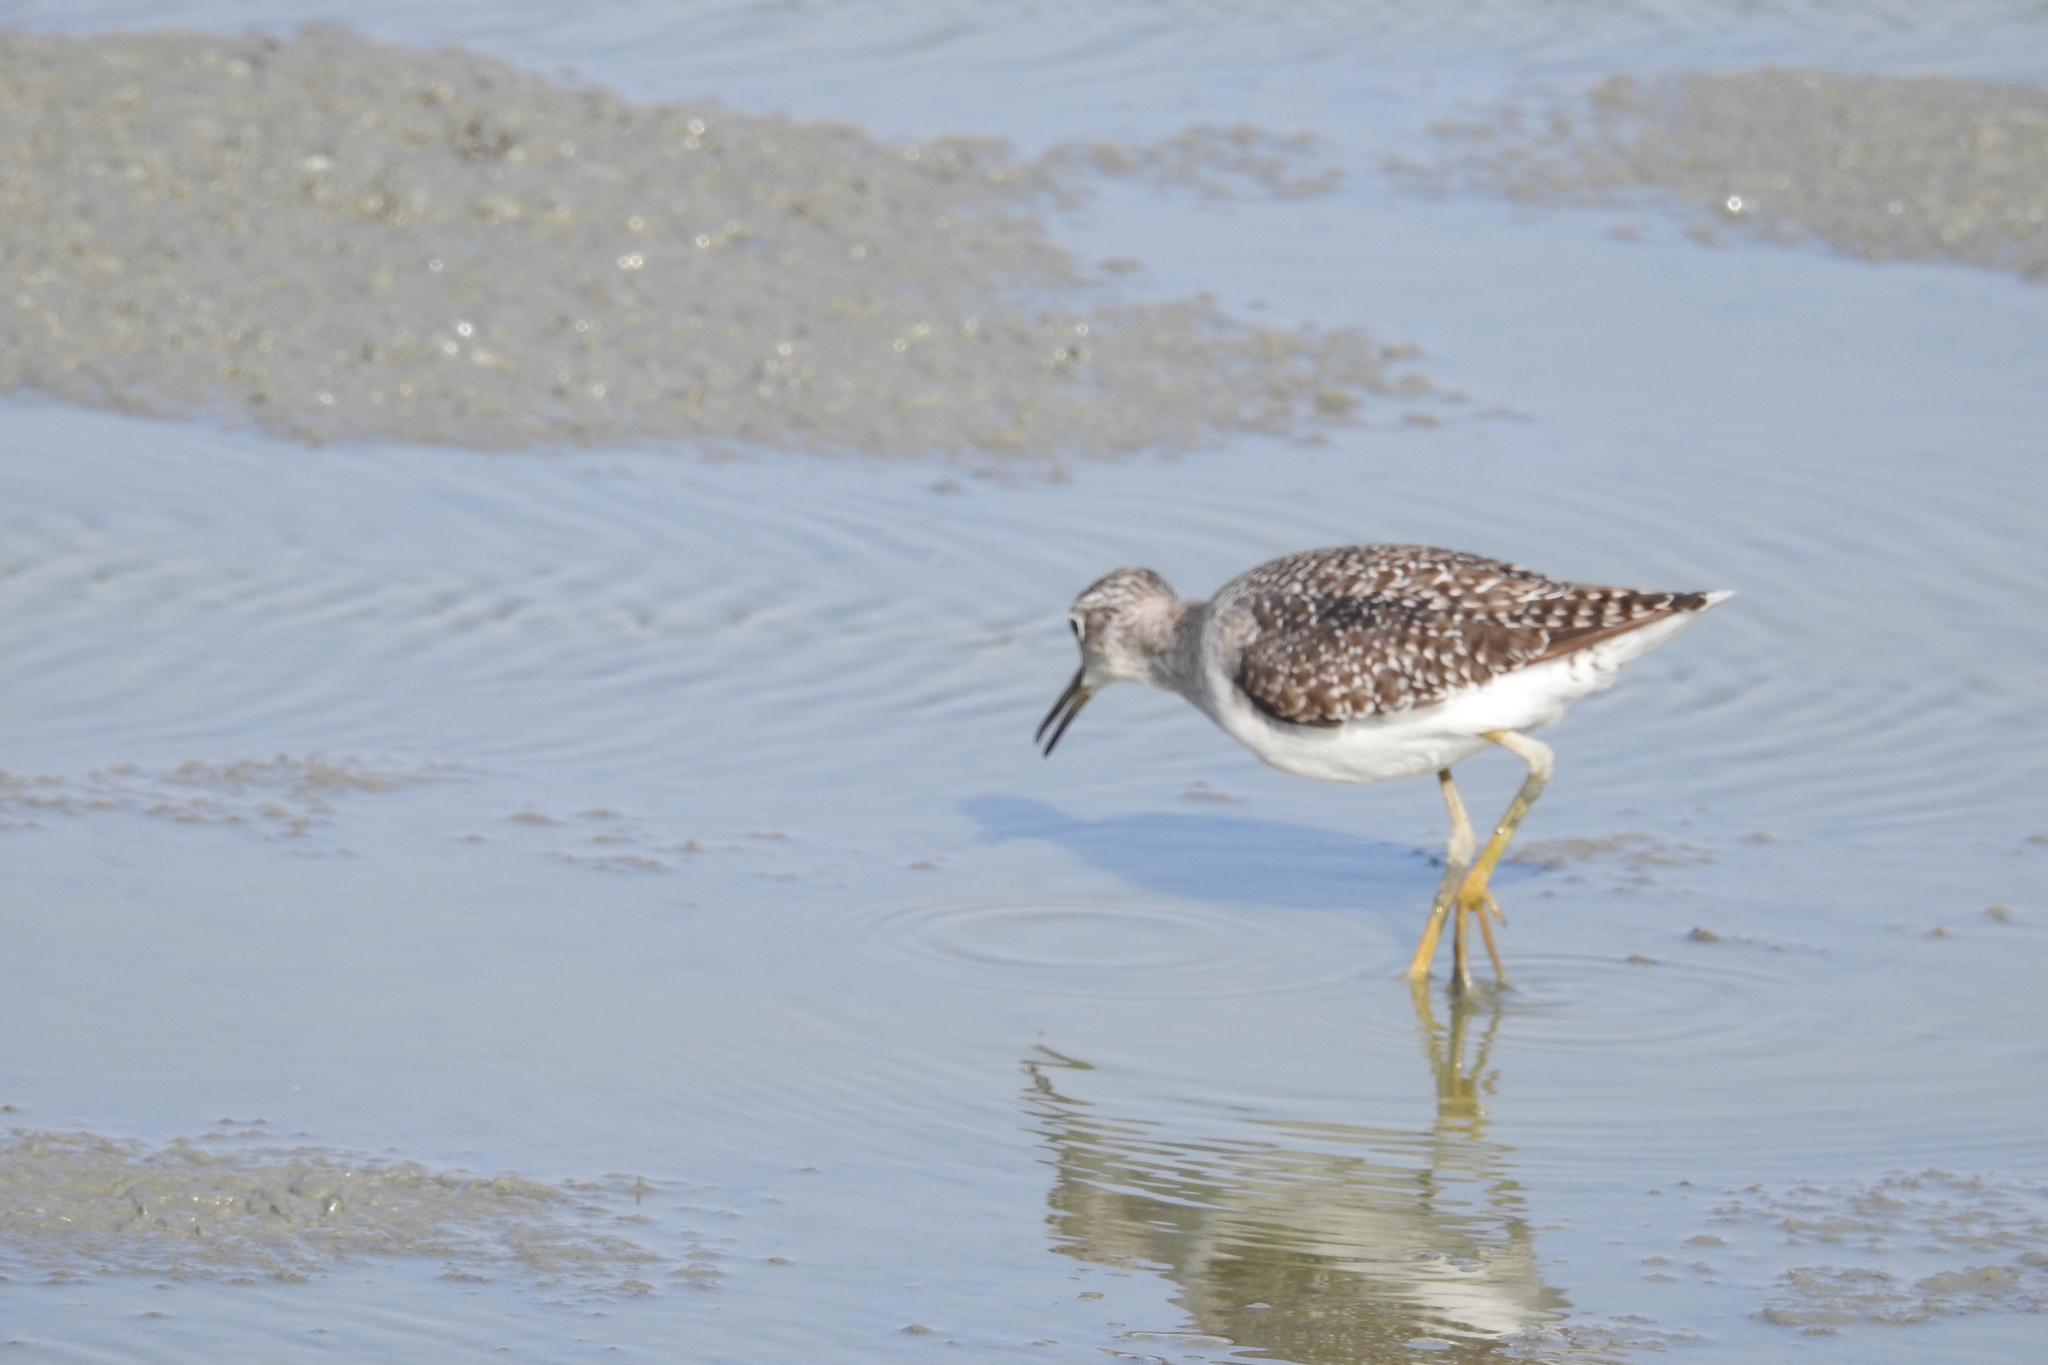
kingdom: Animalia
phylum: Chordata
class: Aves
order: Charadriiformes
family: Scolopacidae
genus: Tringa
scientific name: Tringa glareola
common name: Wood sandpiper
